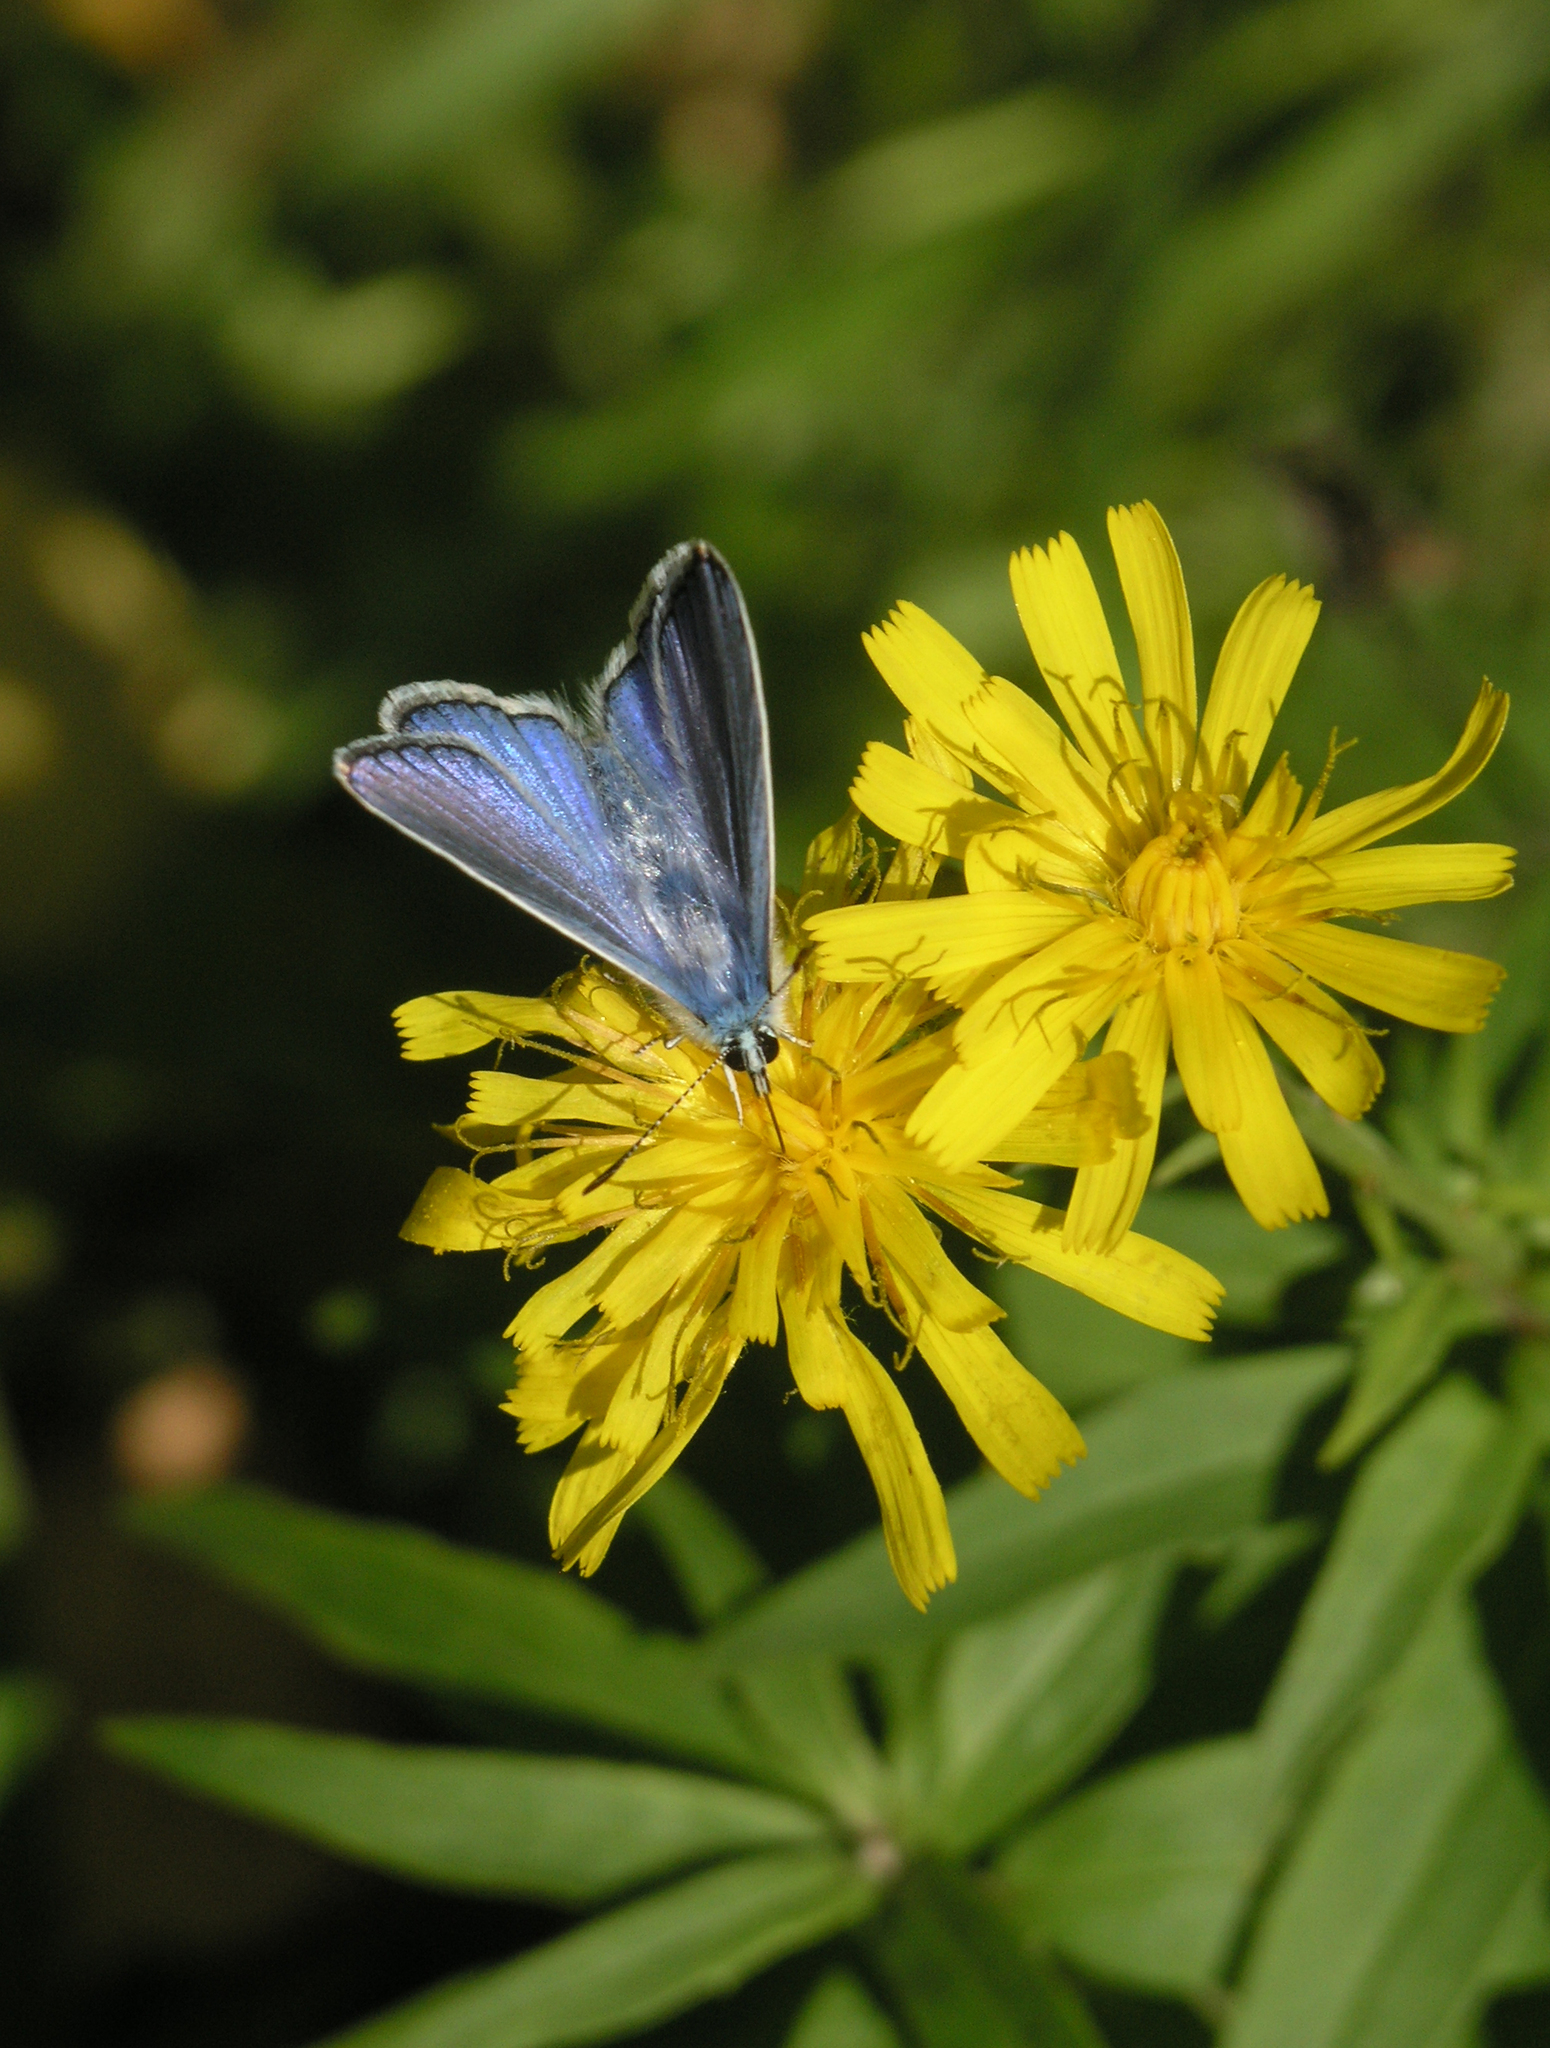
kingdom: Plantae
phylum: Tracheophyta
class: Magnoliopsida
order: Asterales
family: Asteraceae
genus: Hieracium
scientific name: Hieracium umbellatum
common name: Northern hawkweed
